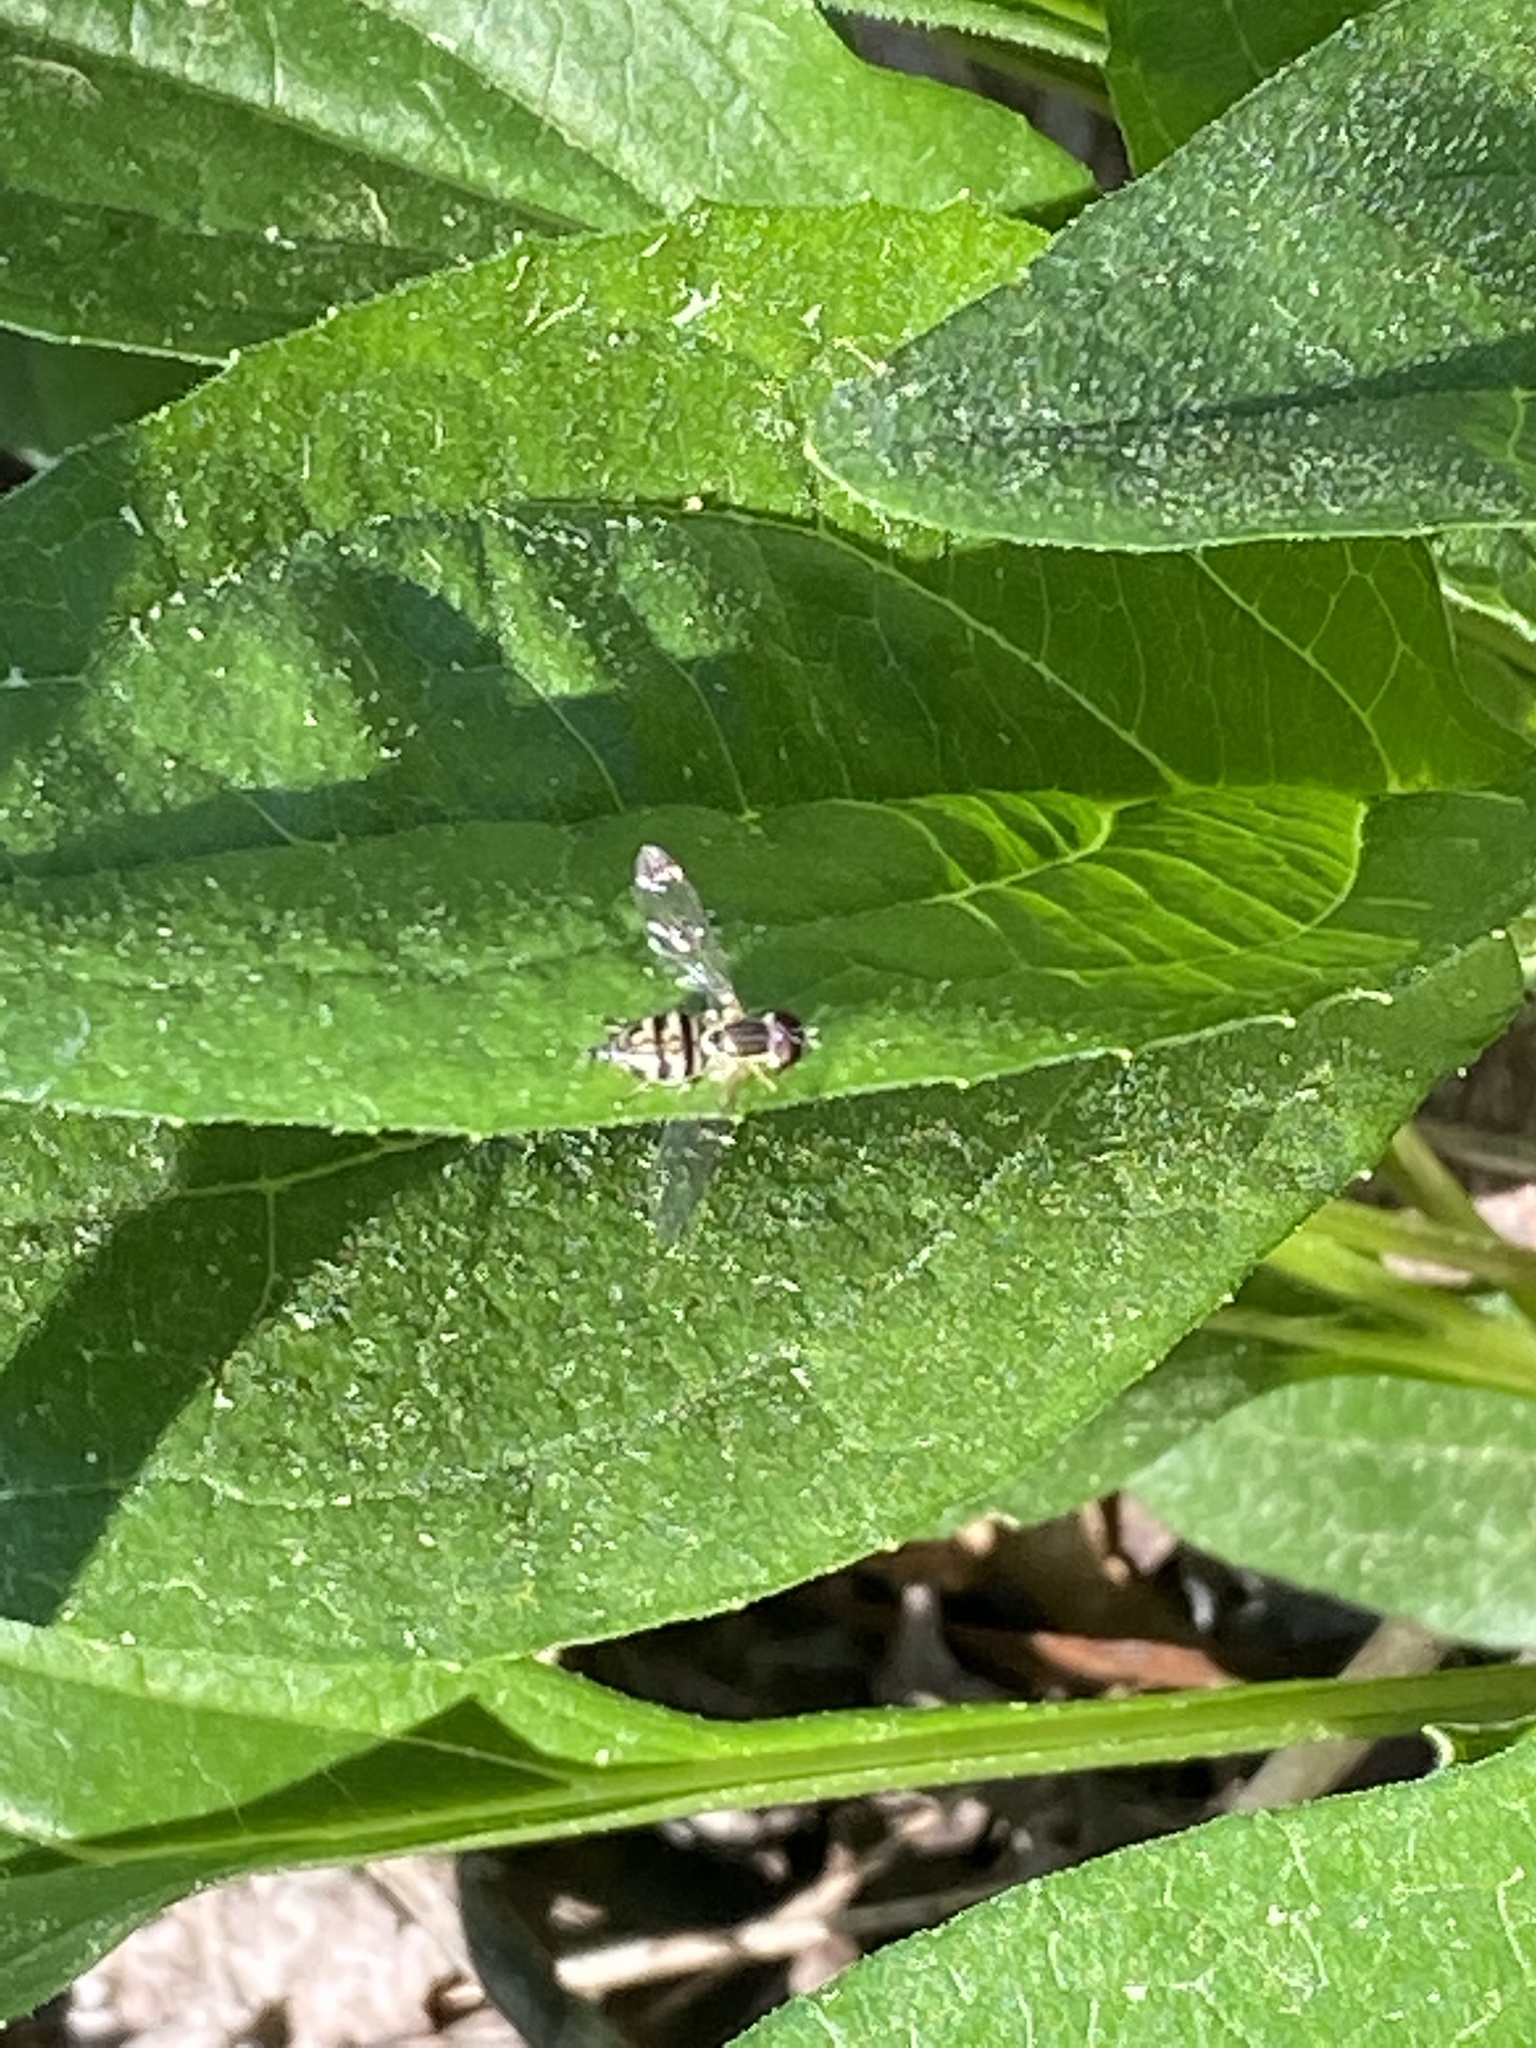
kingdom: Animalia
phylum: Arthropoda
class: Insecta
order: Diptera
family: Syrphidae
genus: Toxomerus
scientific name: Toxomerus geminatus
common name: Eastern calligrapher
